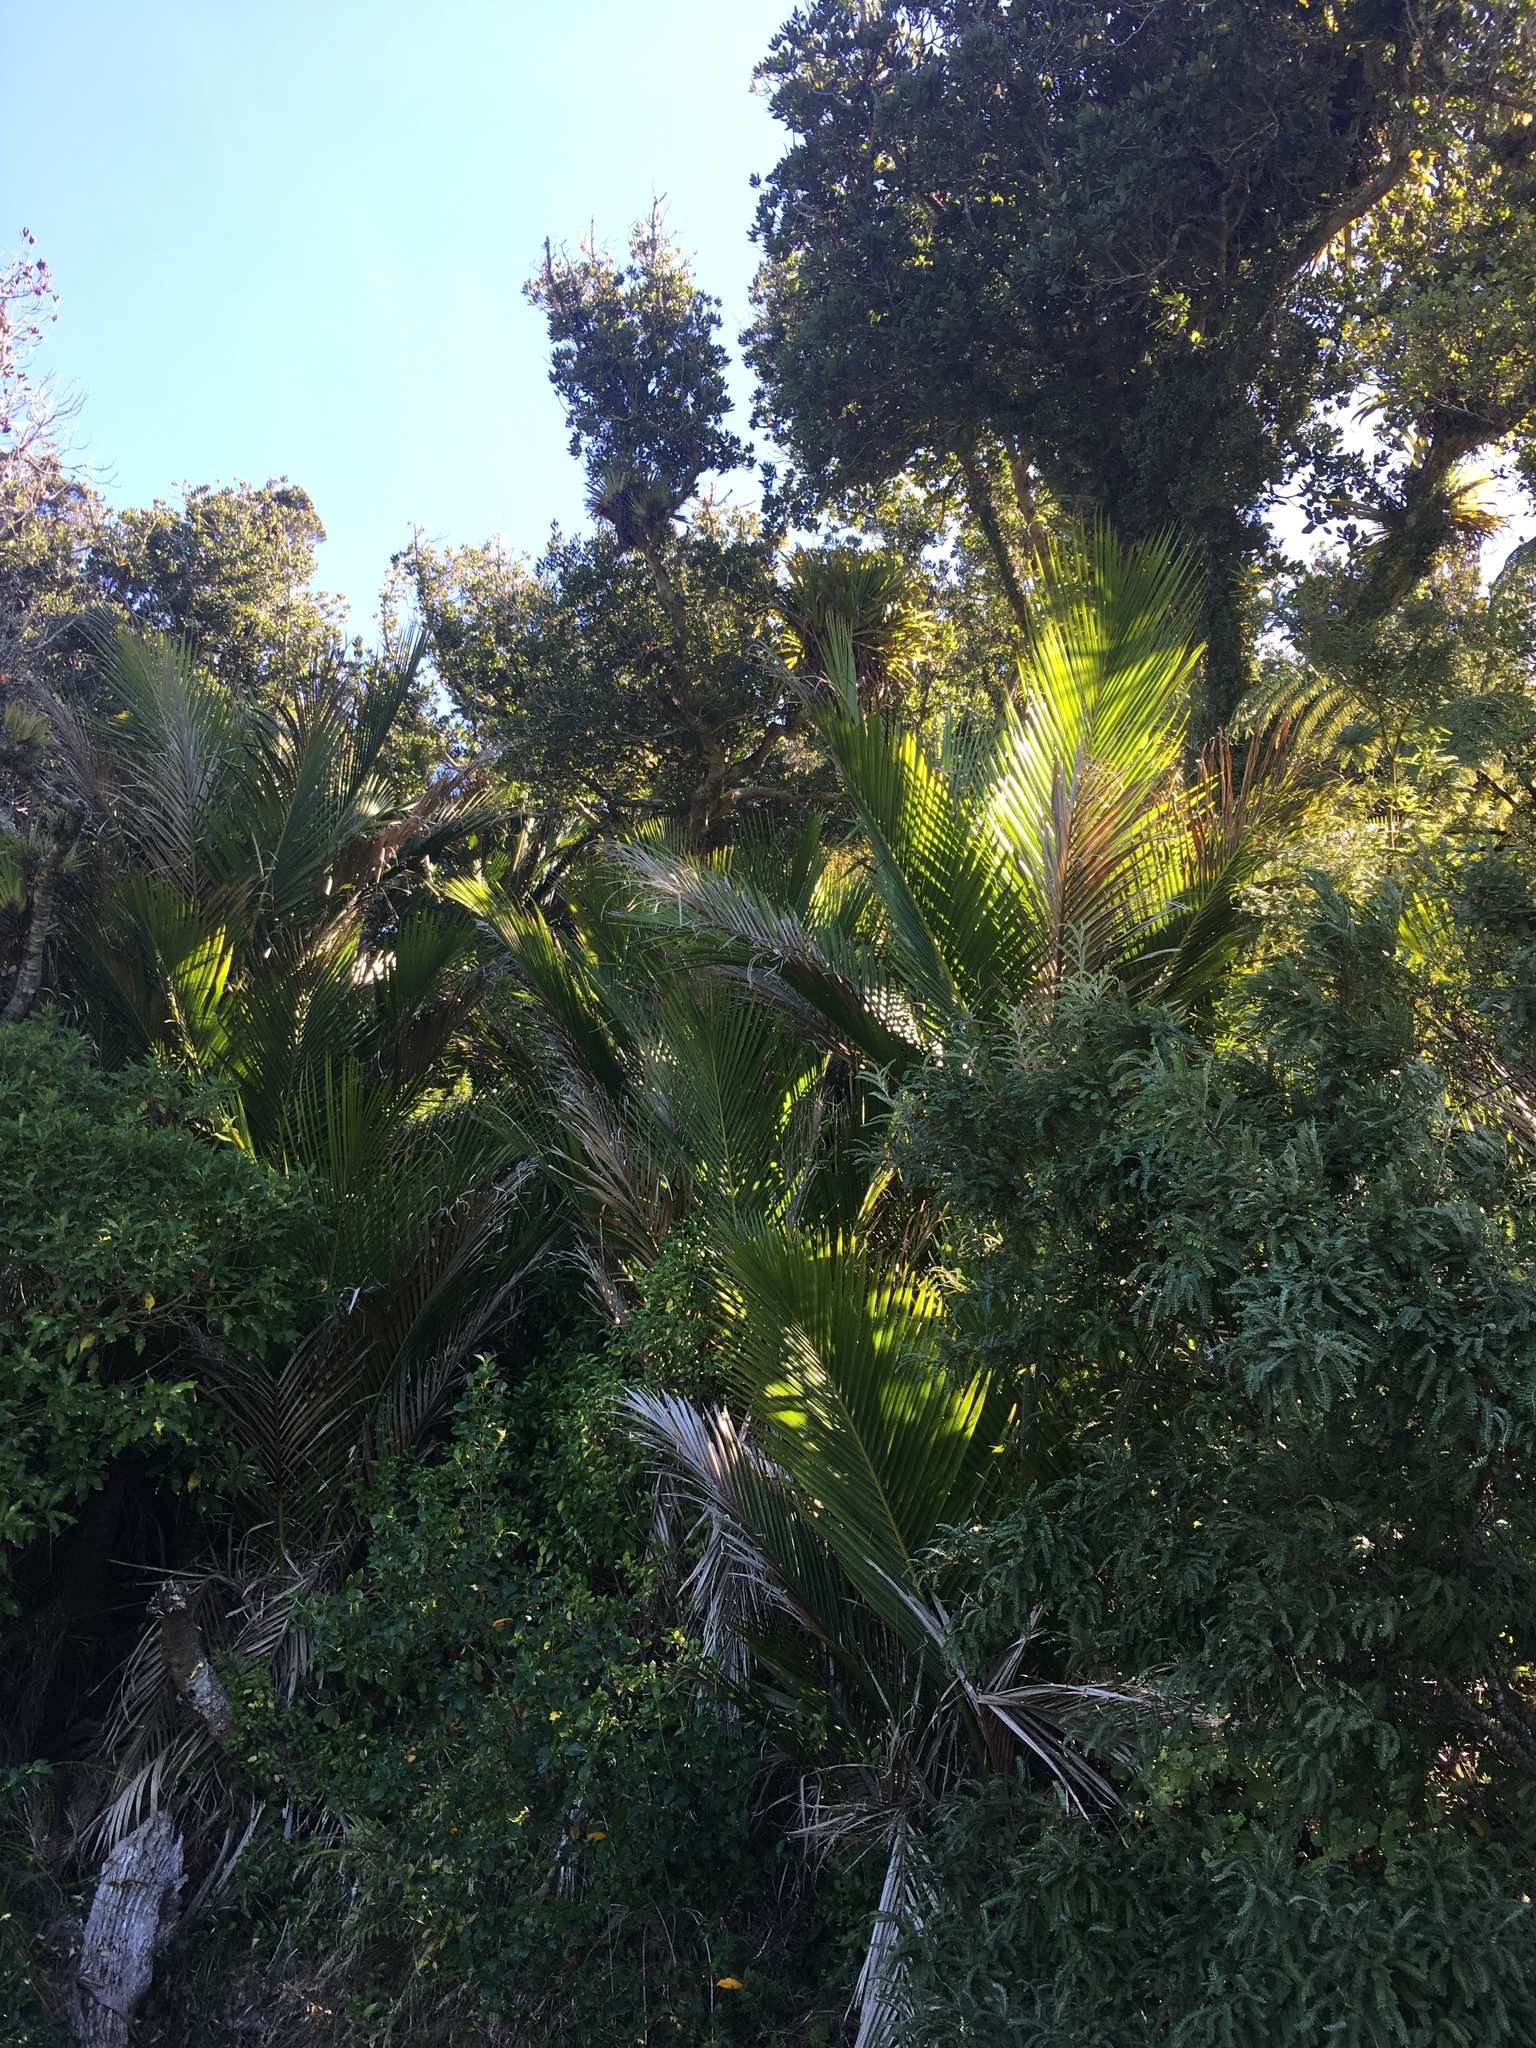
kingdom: Plantae
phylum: Tracheophyta
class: Liliopsida
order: Arecales
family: Arecaceae
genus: Rhopalostylis
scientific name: Rhopalostylis sapida
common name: Feather-duster palm
